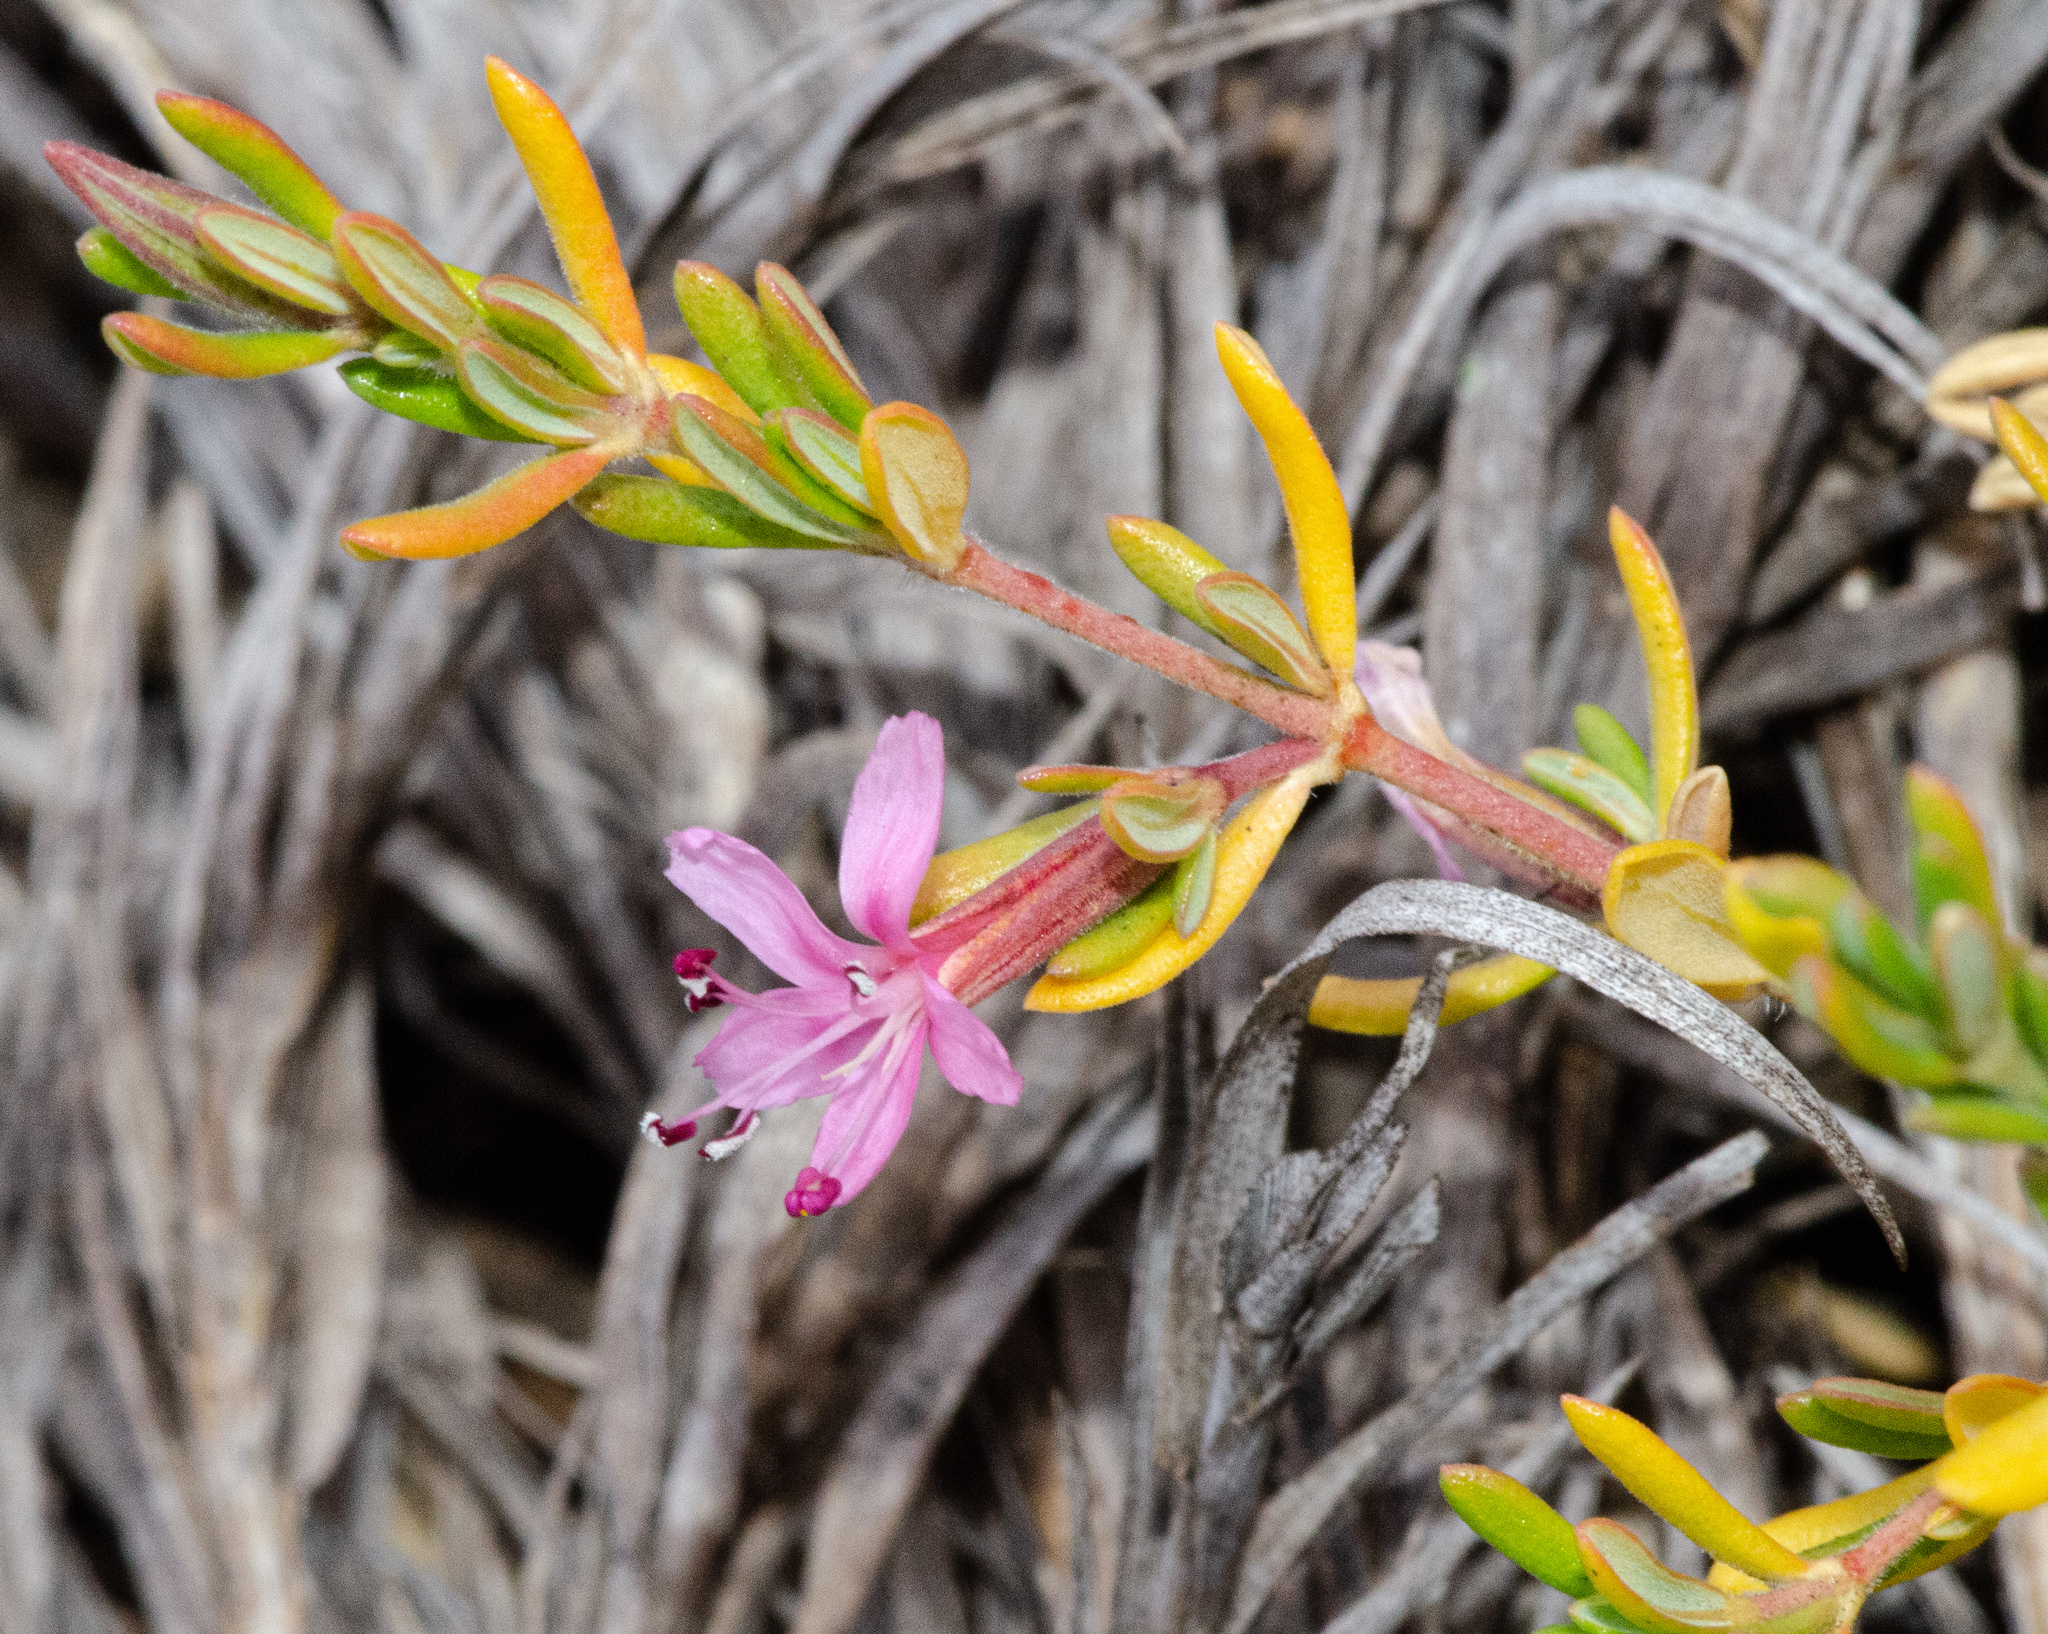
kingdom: Plantae
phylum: Tracheophyta
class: Magnoliopsida
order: Caryophyllales
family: Frankeniaceae
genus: Frankenia
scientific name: Frankenia salina
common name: Alkali seaheath
